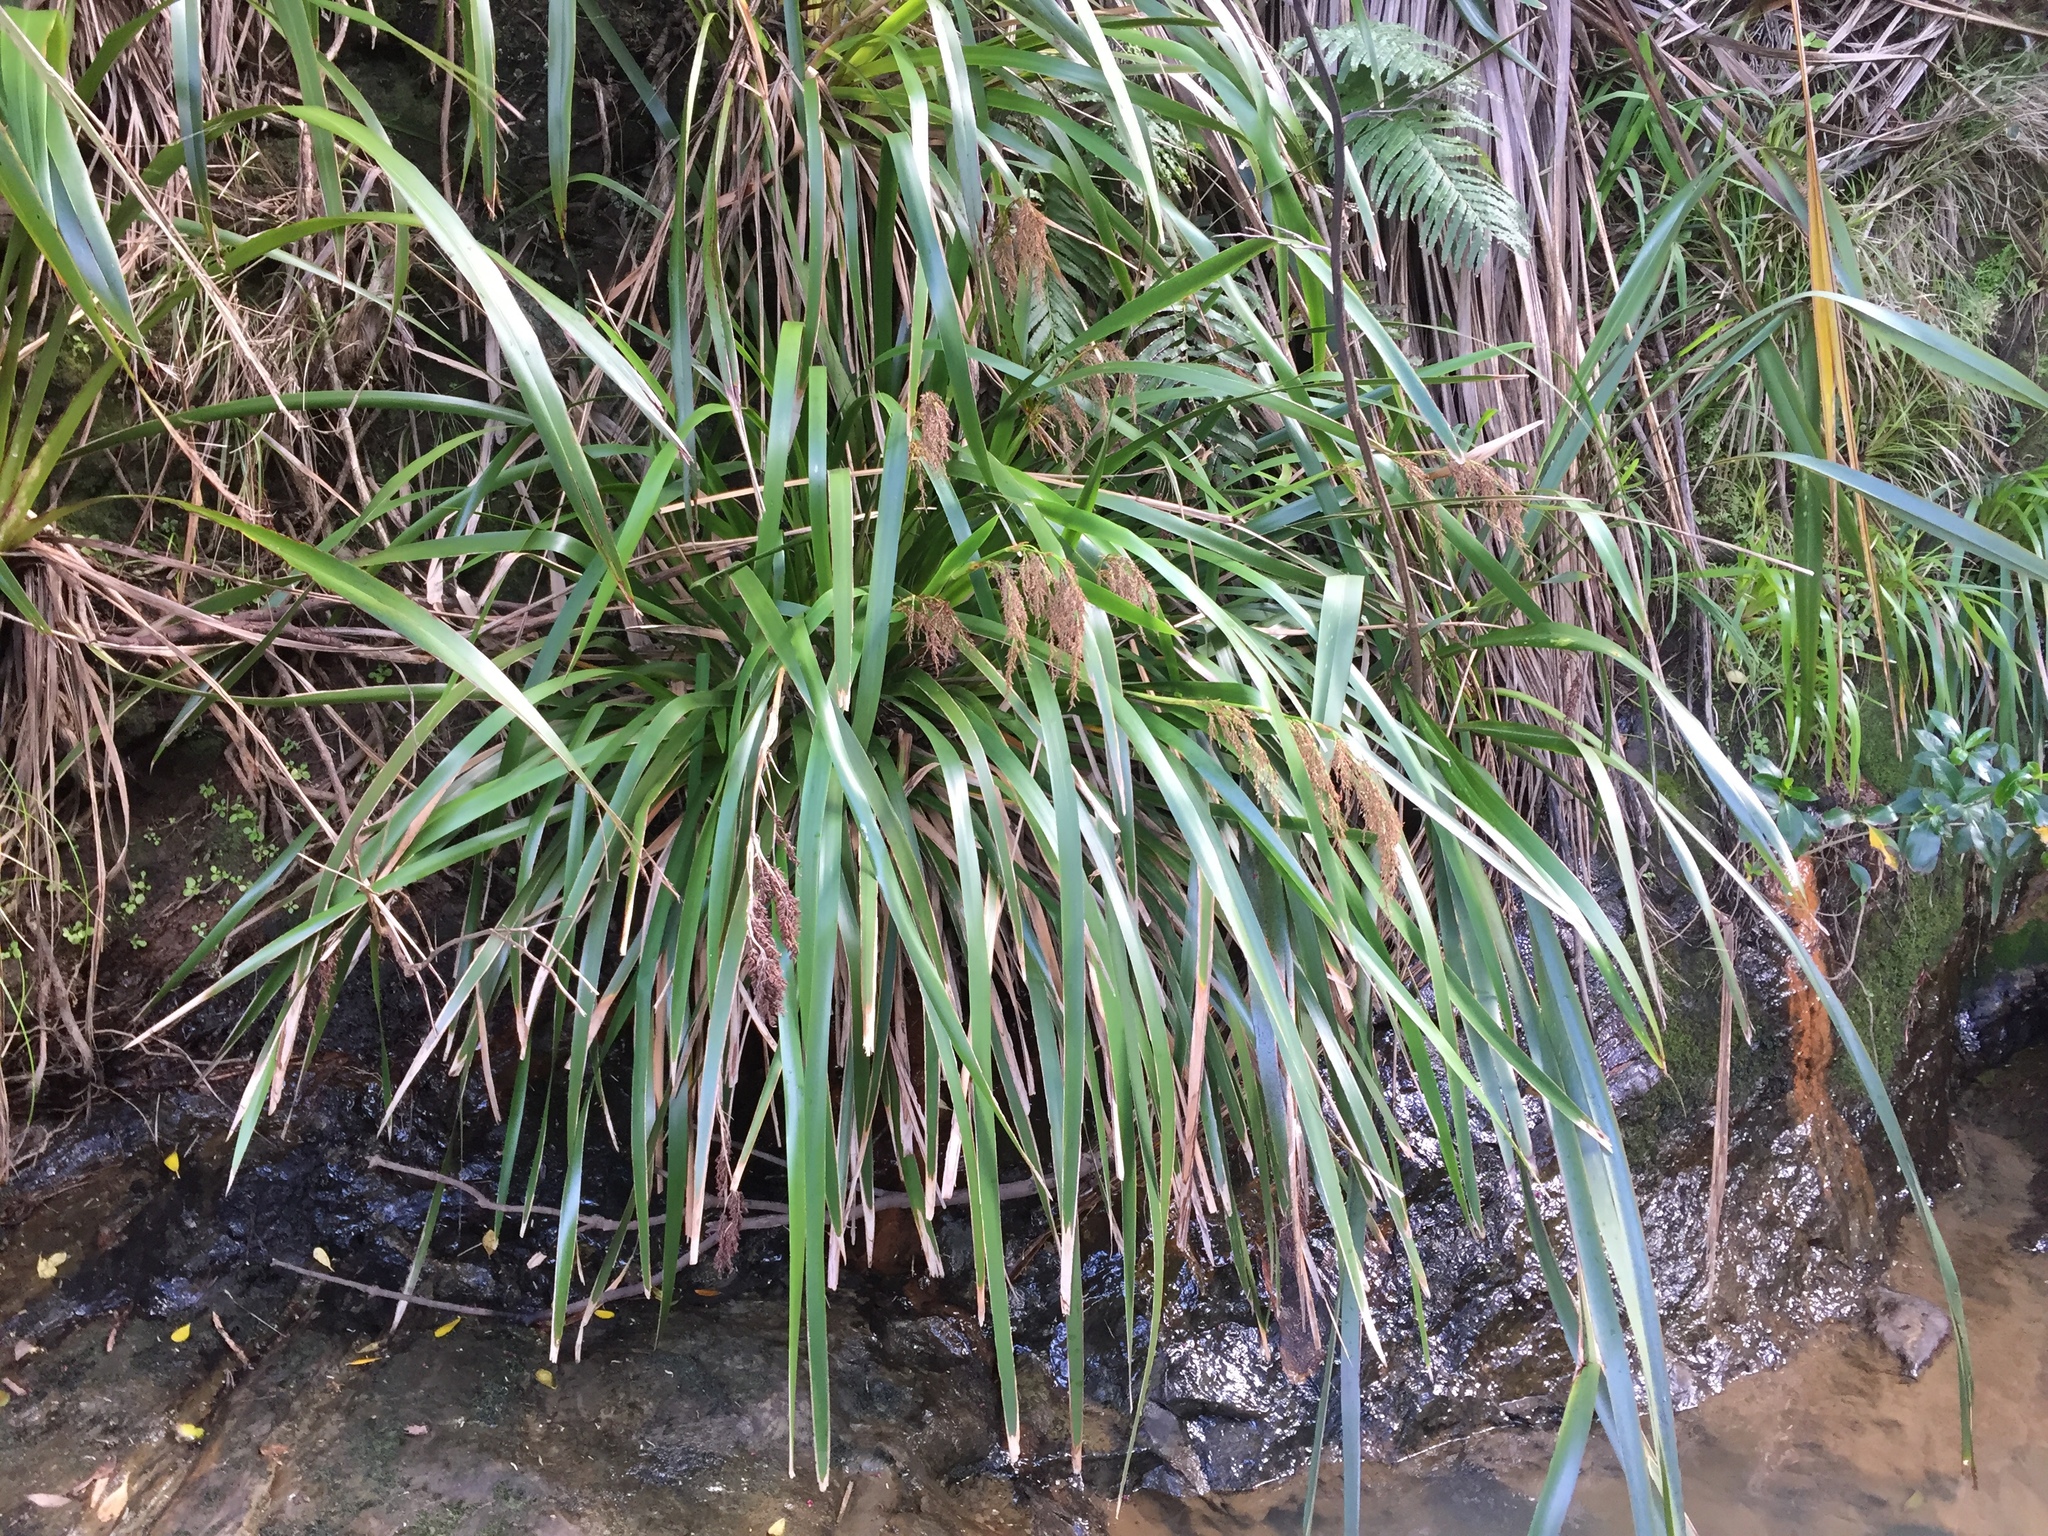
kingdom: Plantae
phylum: Tracheophyta
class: Liliopsida
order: Poales
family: Cyperaceae
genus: Machaerina
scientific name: Machaerina sinclairii
